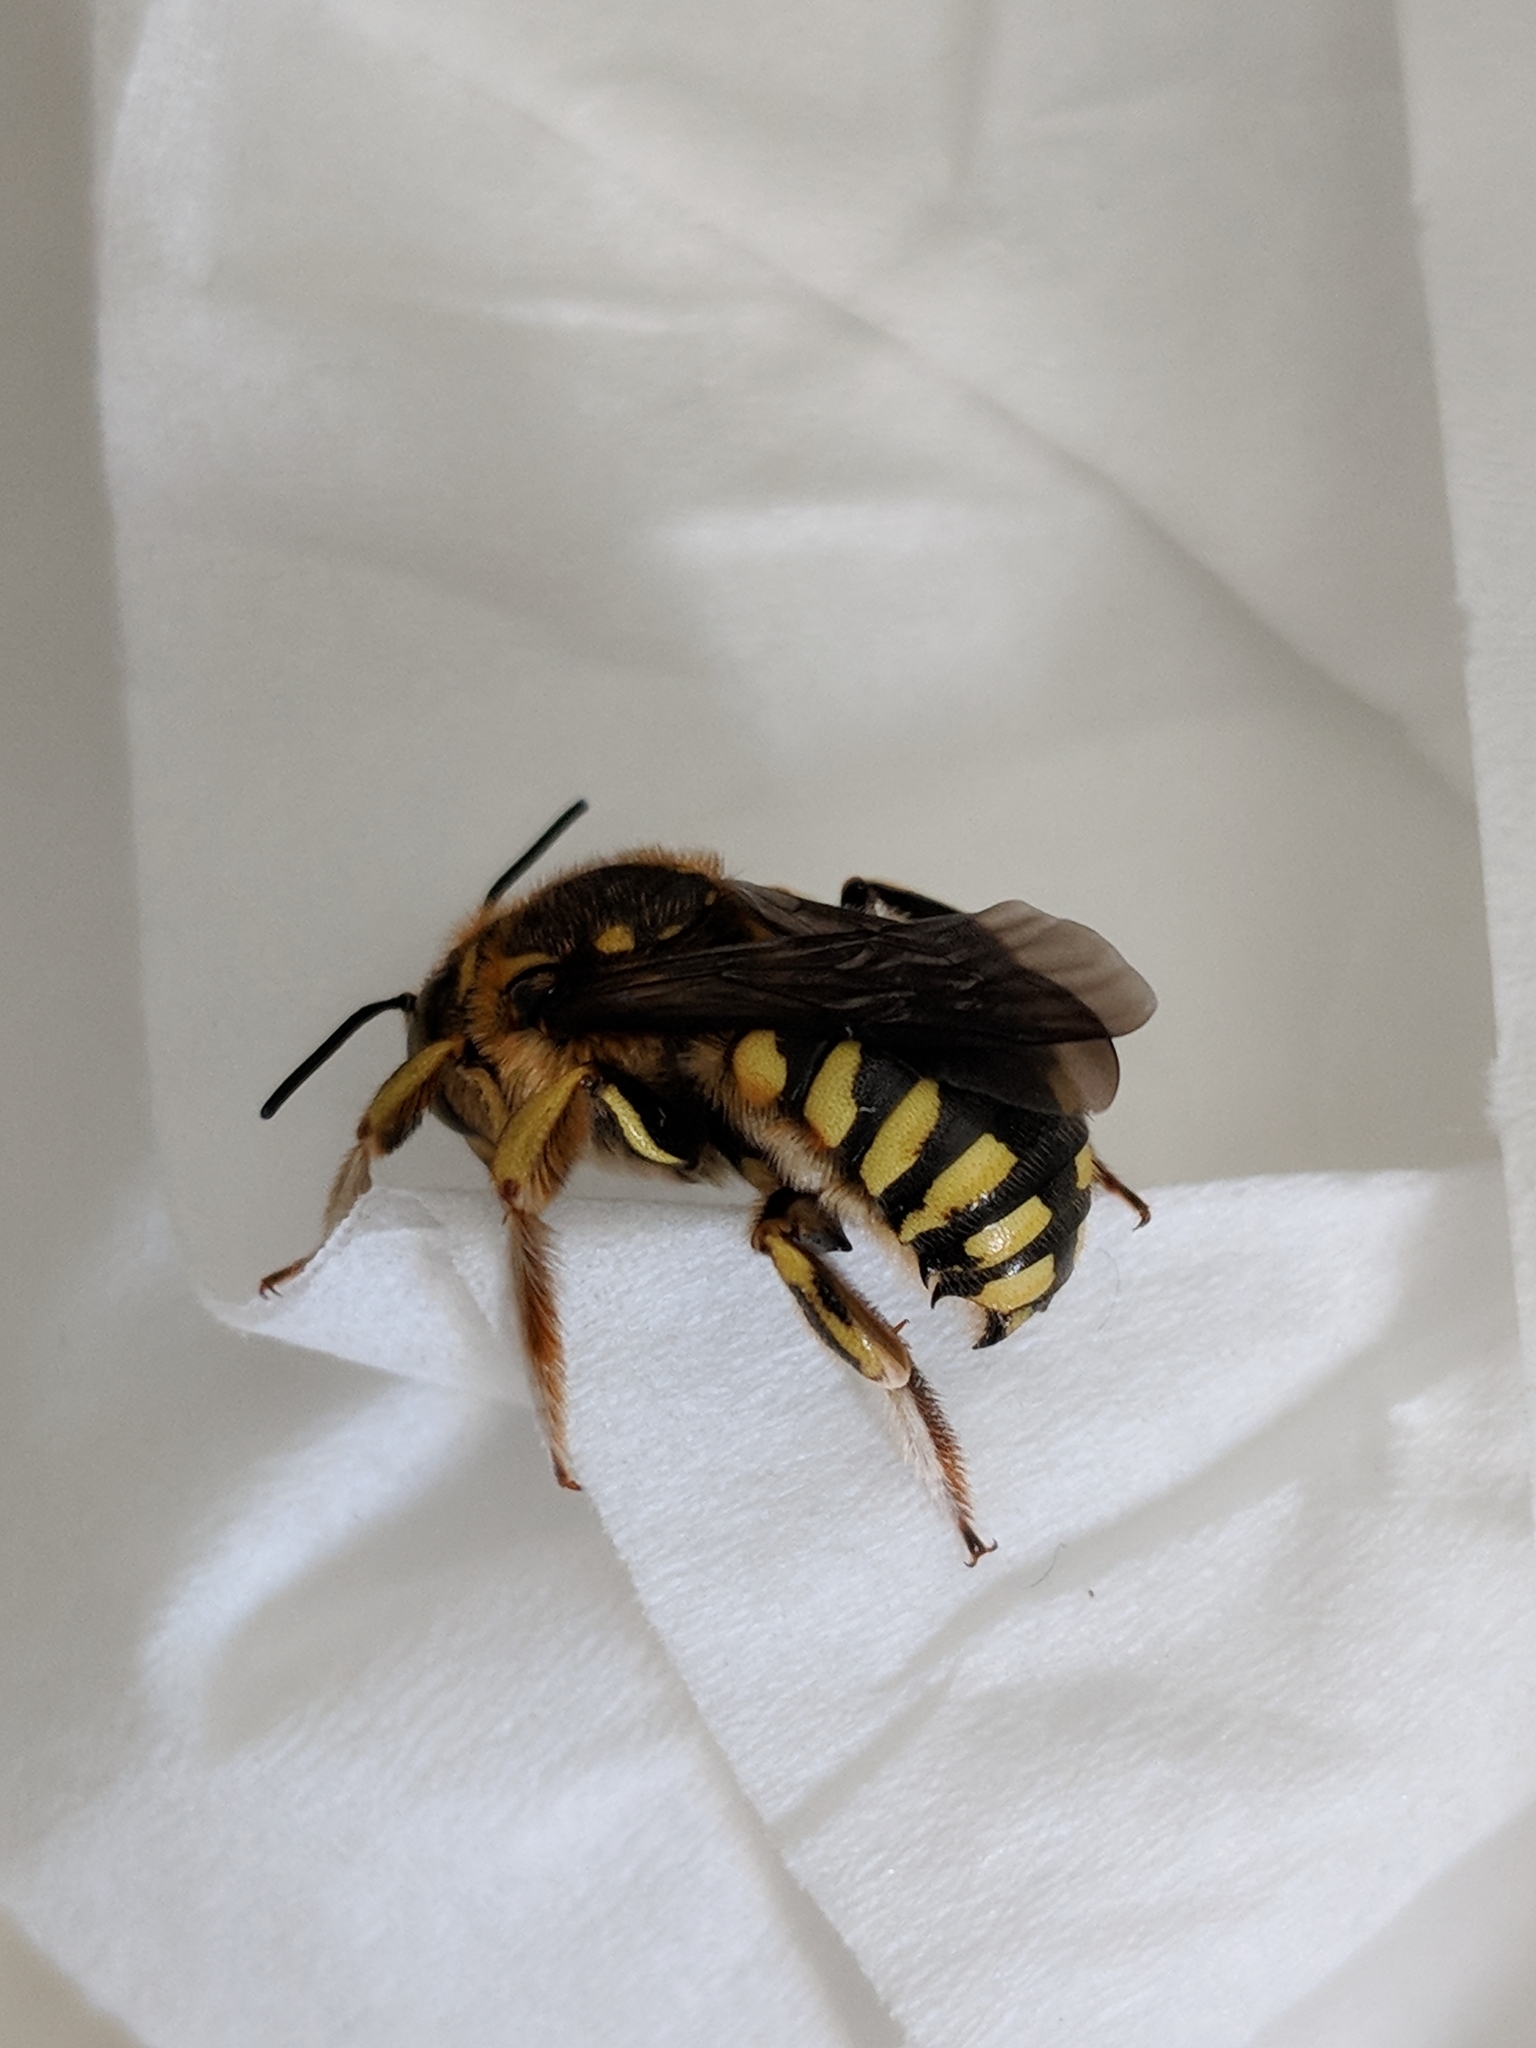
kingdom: Animalia
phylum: Arthropoda
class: Insecta
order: Hymenoptera
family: Megachilidae
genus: Anthidium
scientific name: Anthidium florentinum
